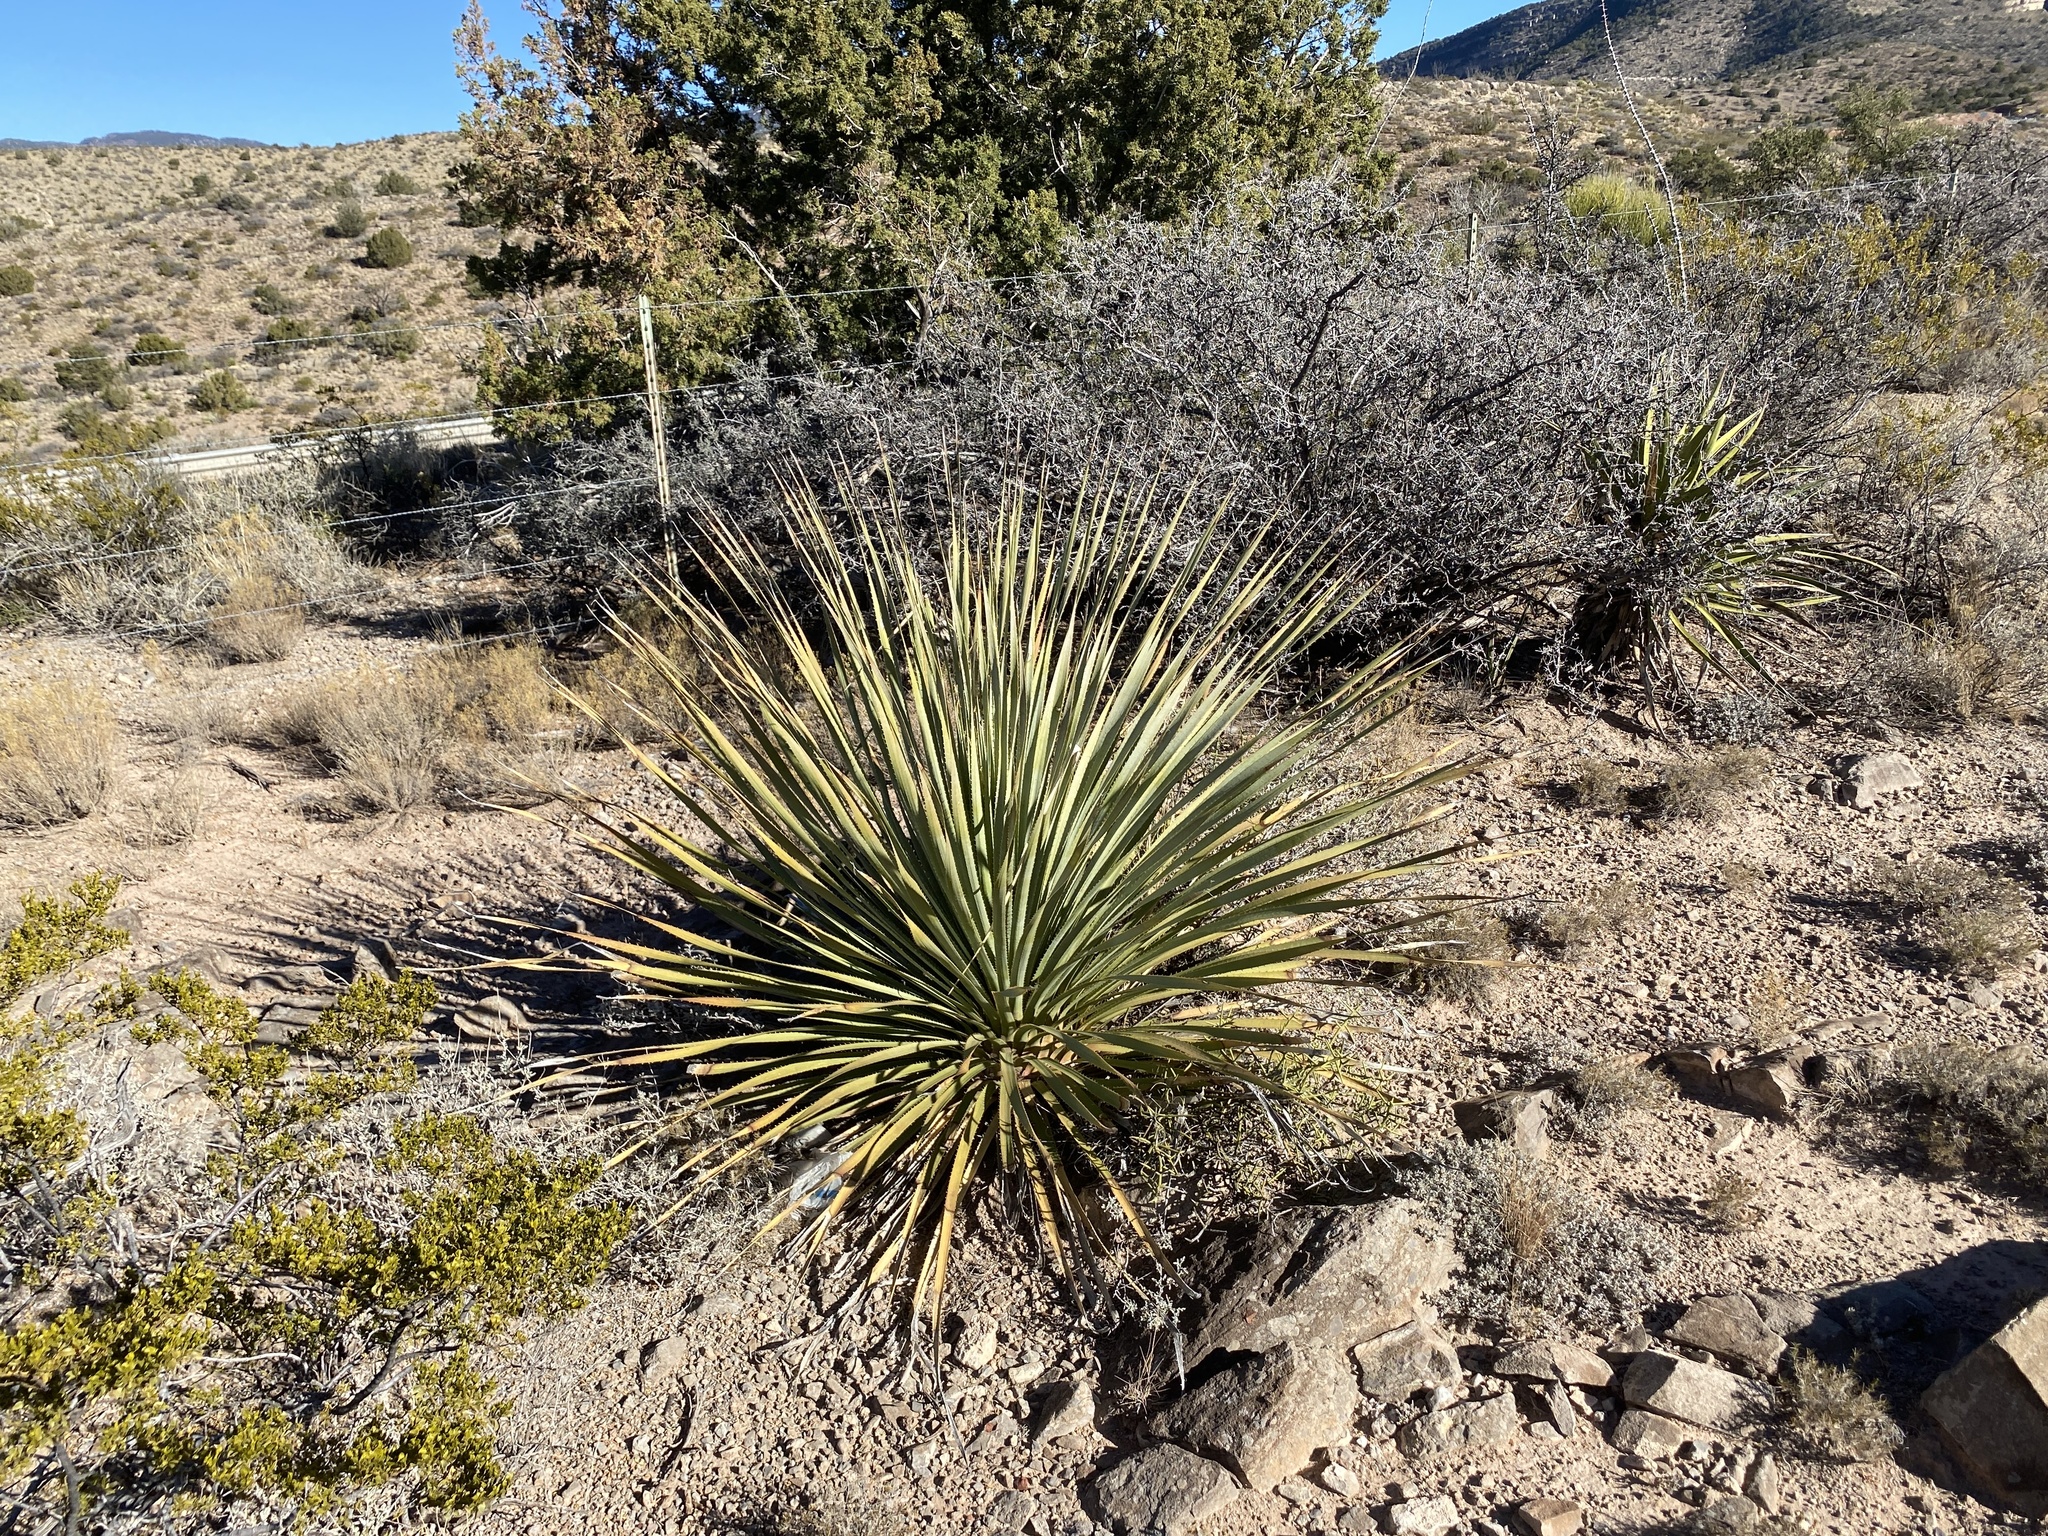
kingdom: Plantae
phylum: Tracheophyta
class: Liliopsida
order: Asparagales
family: Asparagaceae
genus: Dasylirion
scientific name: Dasylirion wheeleri
